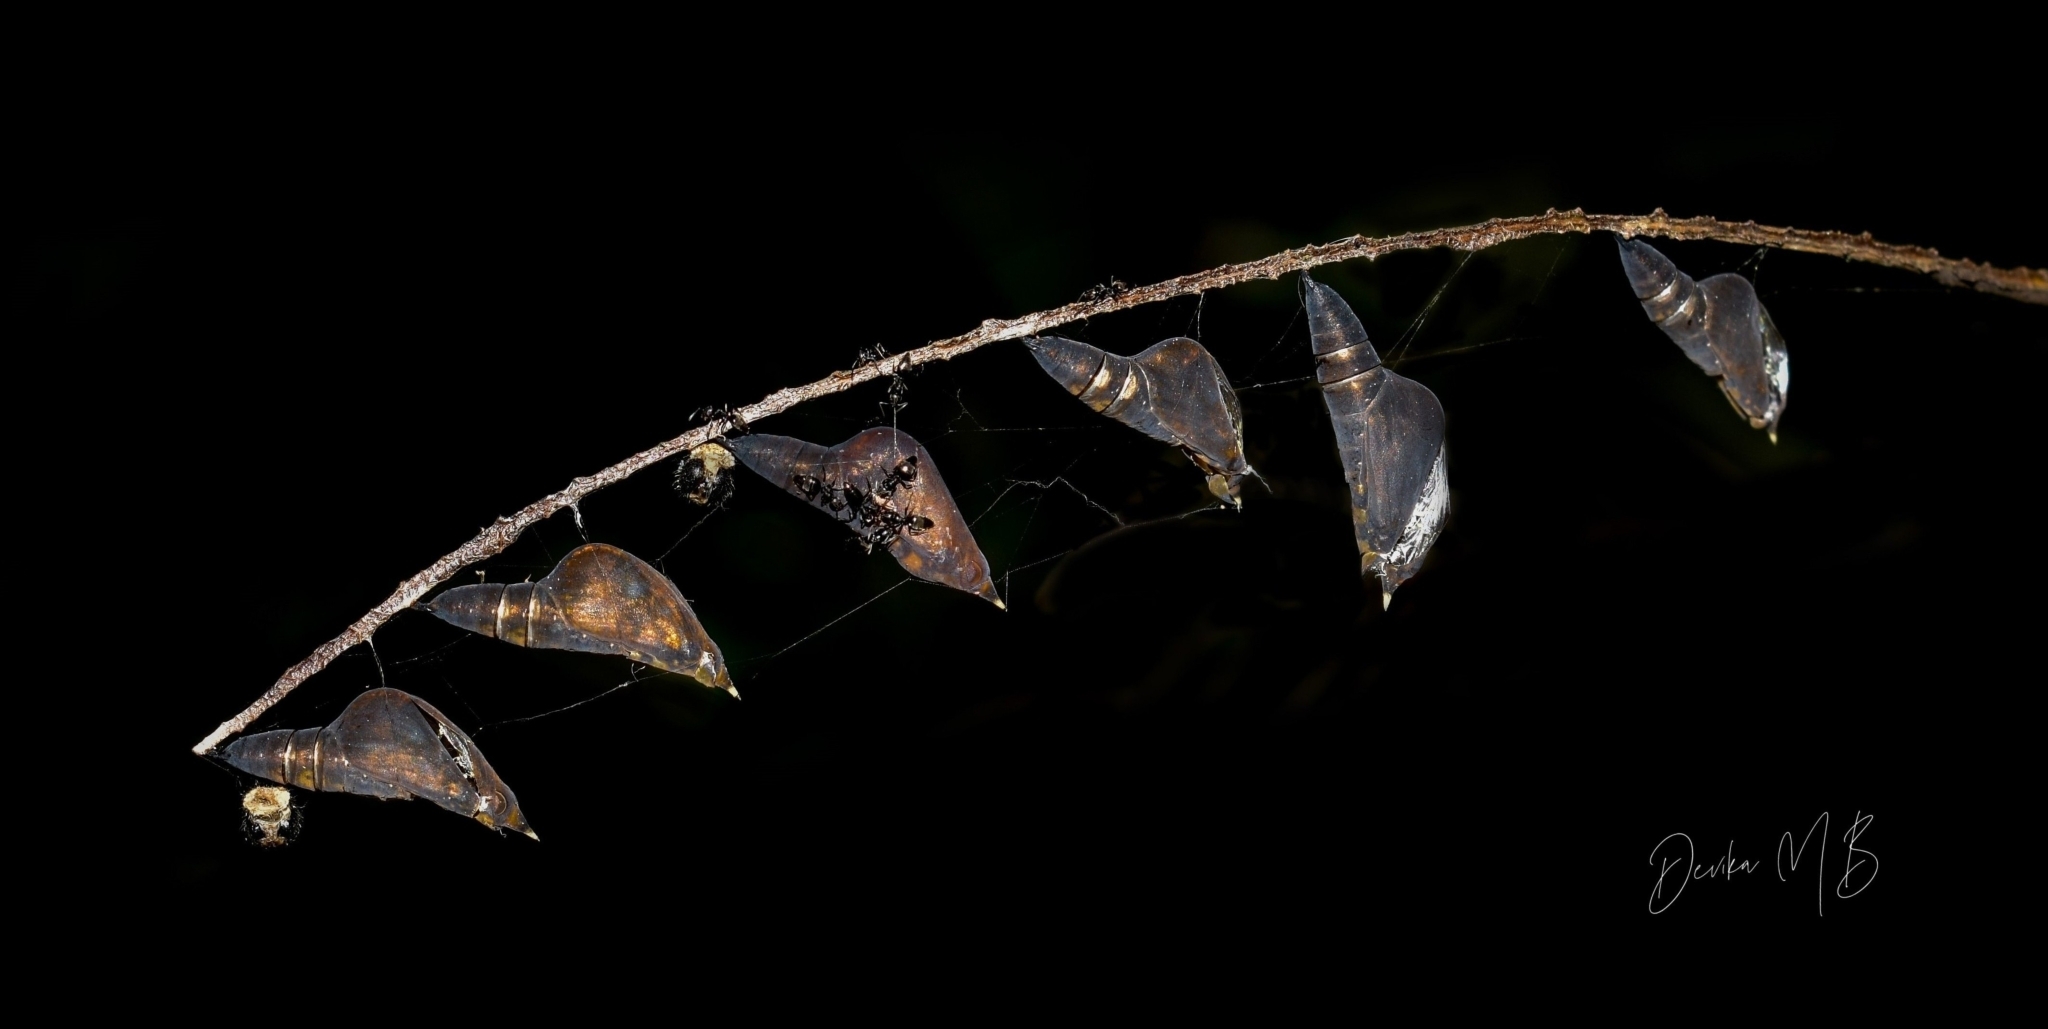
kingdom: Animalia
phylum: Arthropoda
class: Insecta
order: Lepidoptera
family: Pieridae
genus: Eurema
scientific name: Eurema blanda
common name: Three-spot grass yellow
